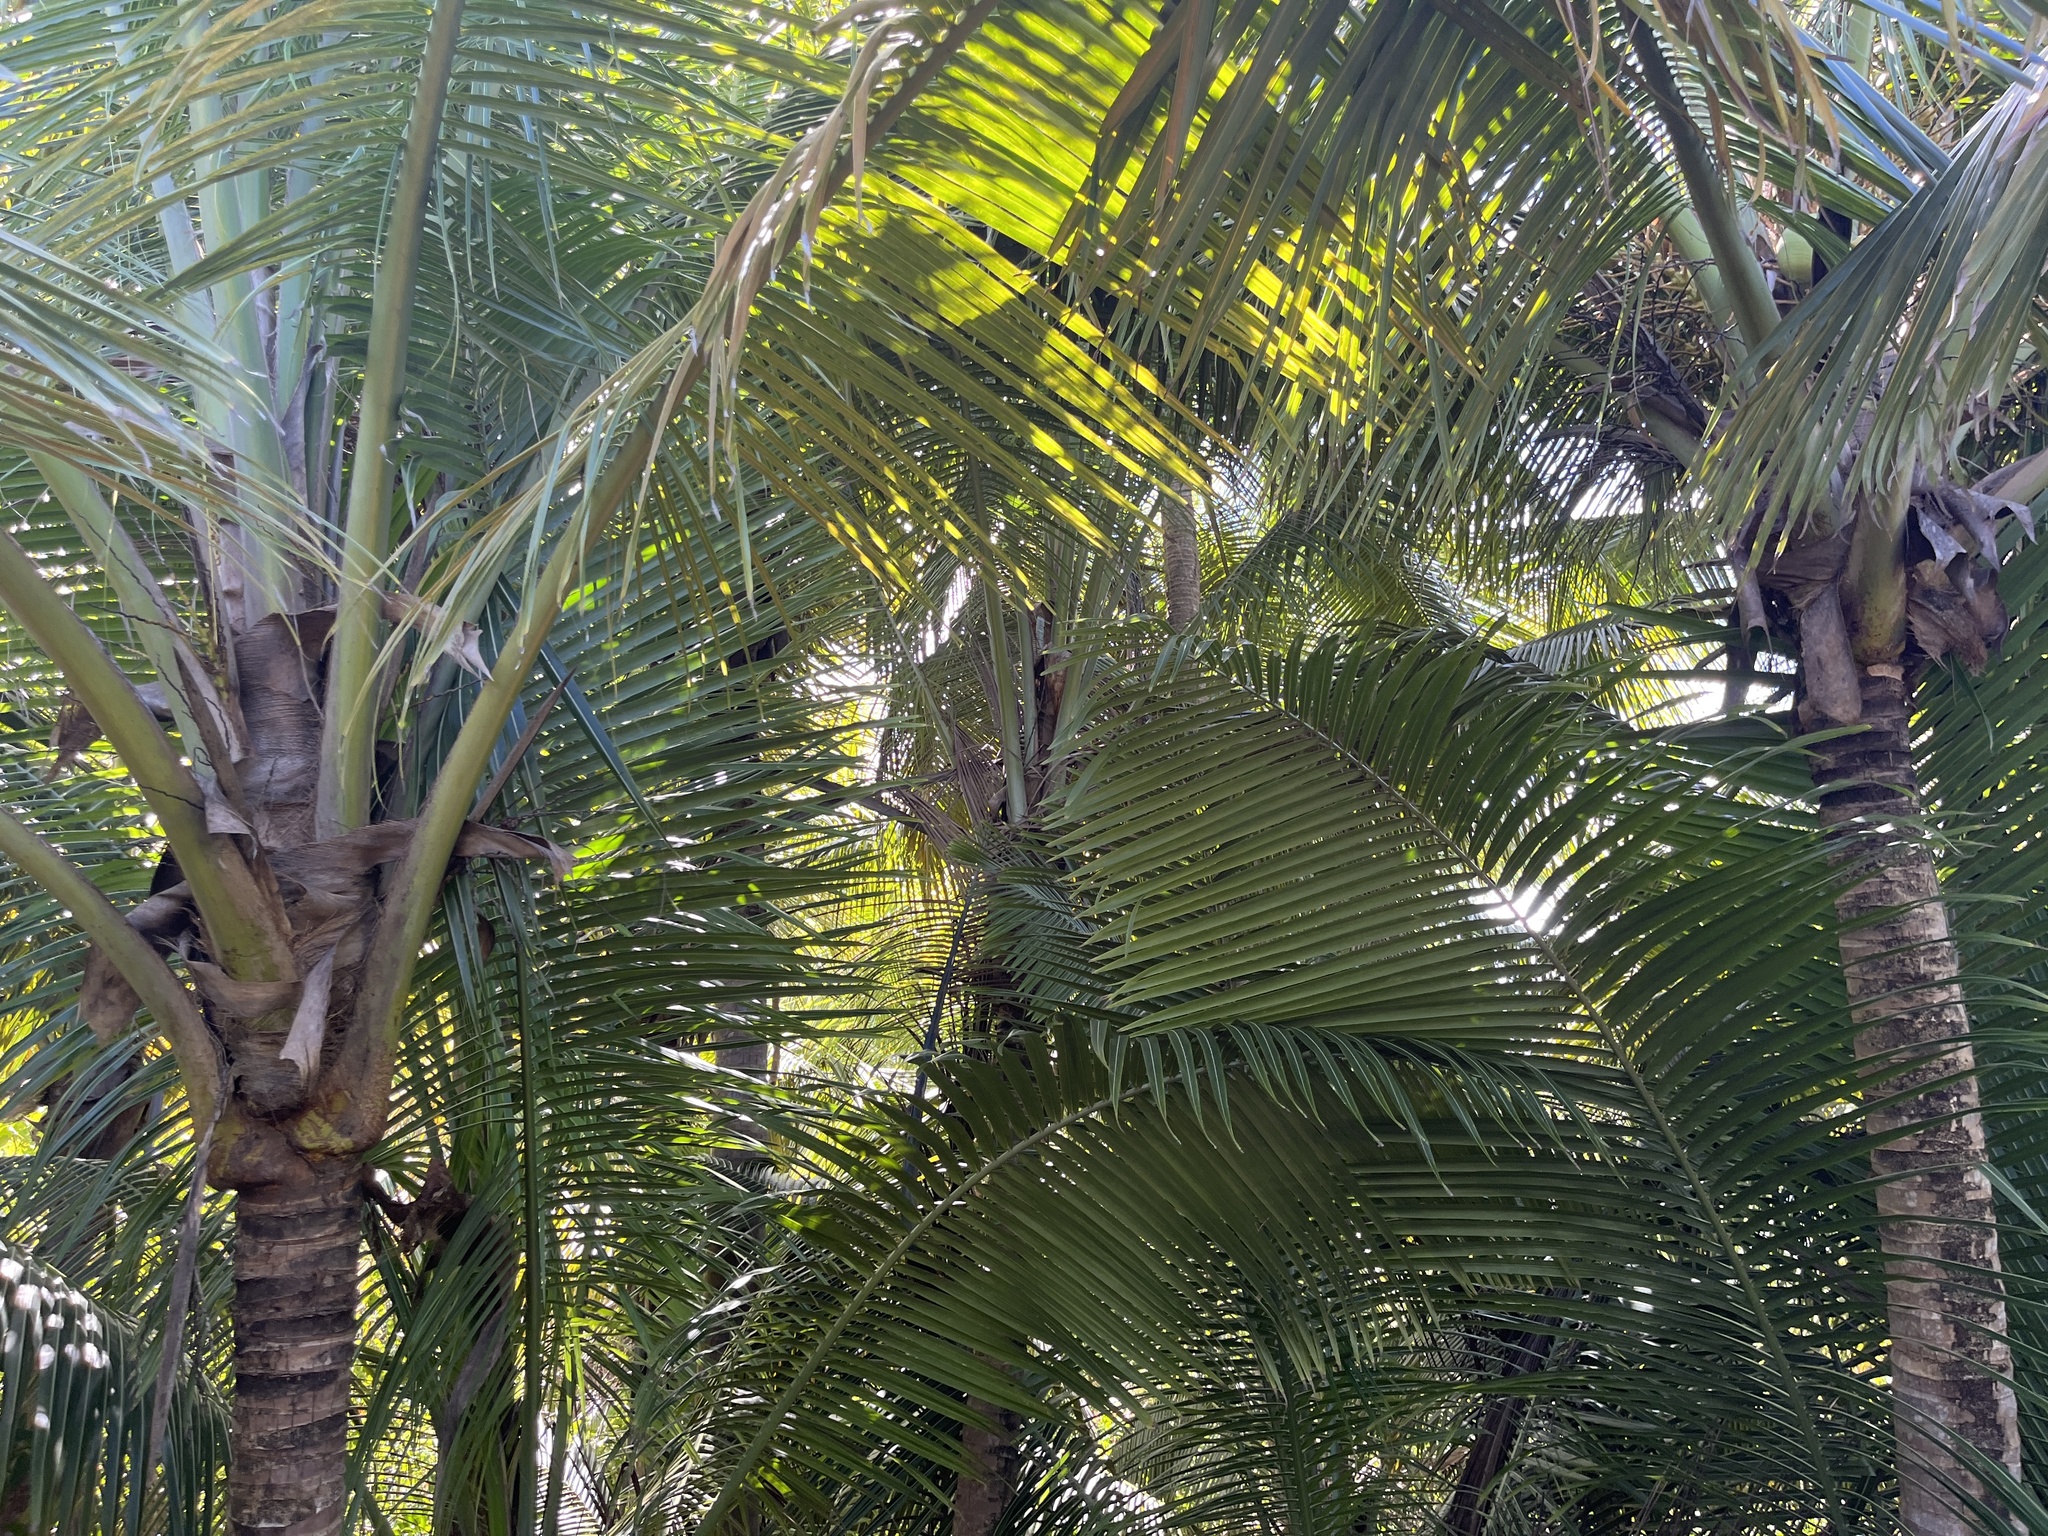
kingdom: Plantae
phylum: Tracheophyta
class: Liliopsida
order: Arecales
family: Arecaceae
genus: Cocos
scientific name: Cocos nucifera
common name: Coconut palm
